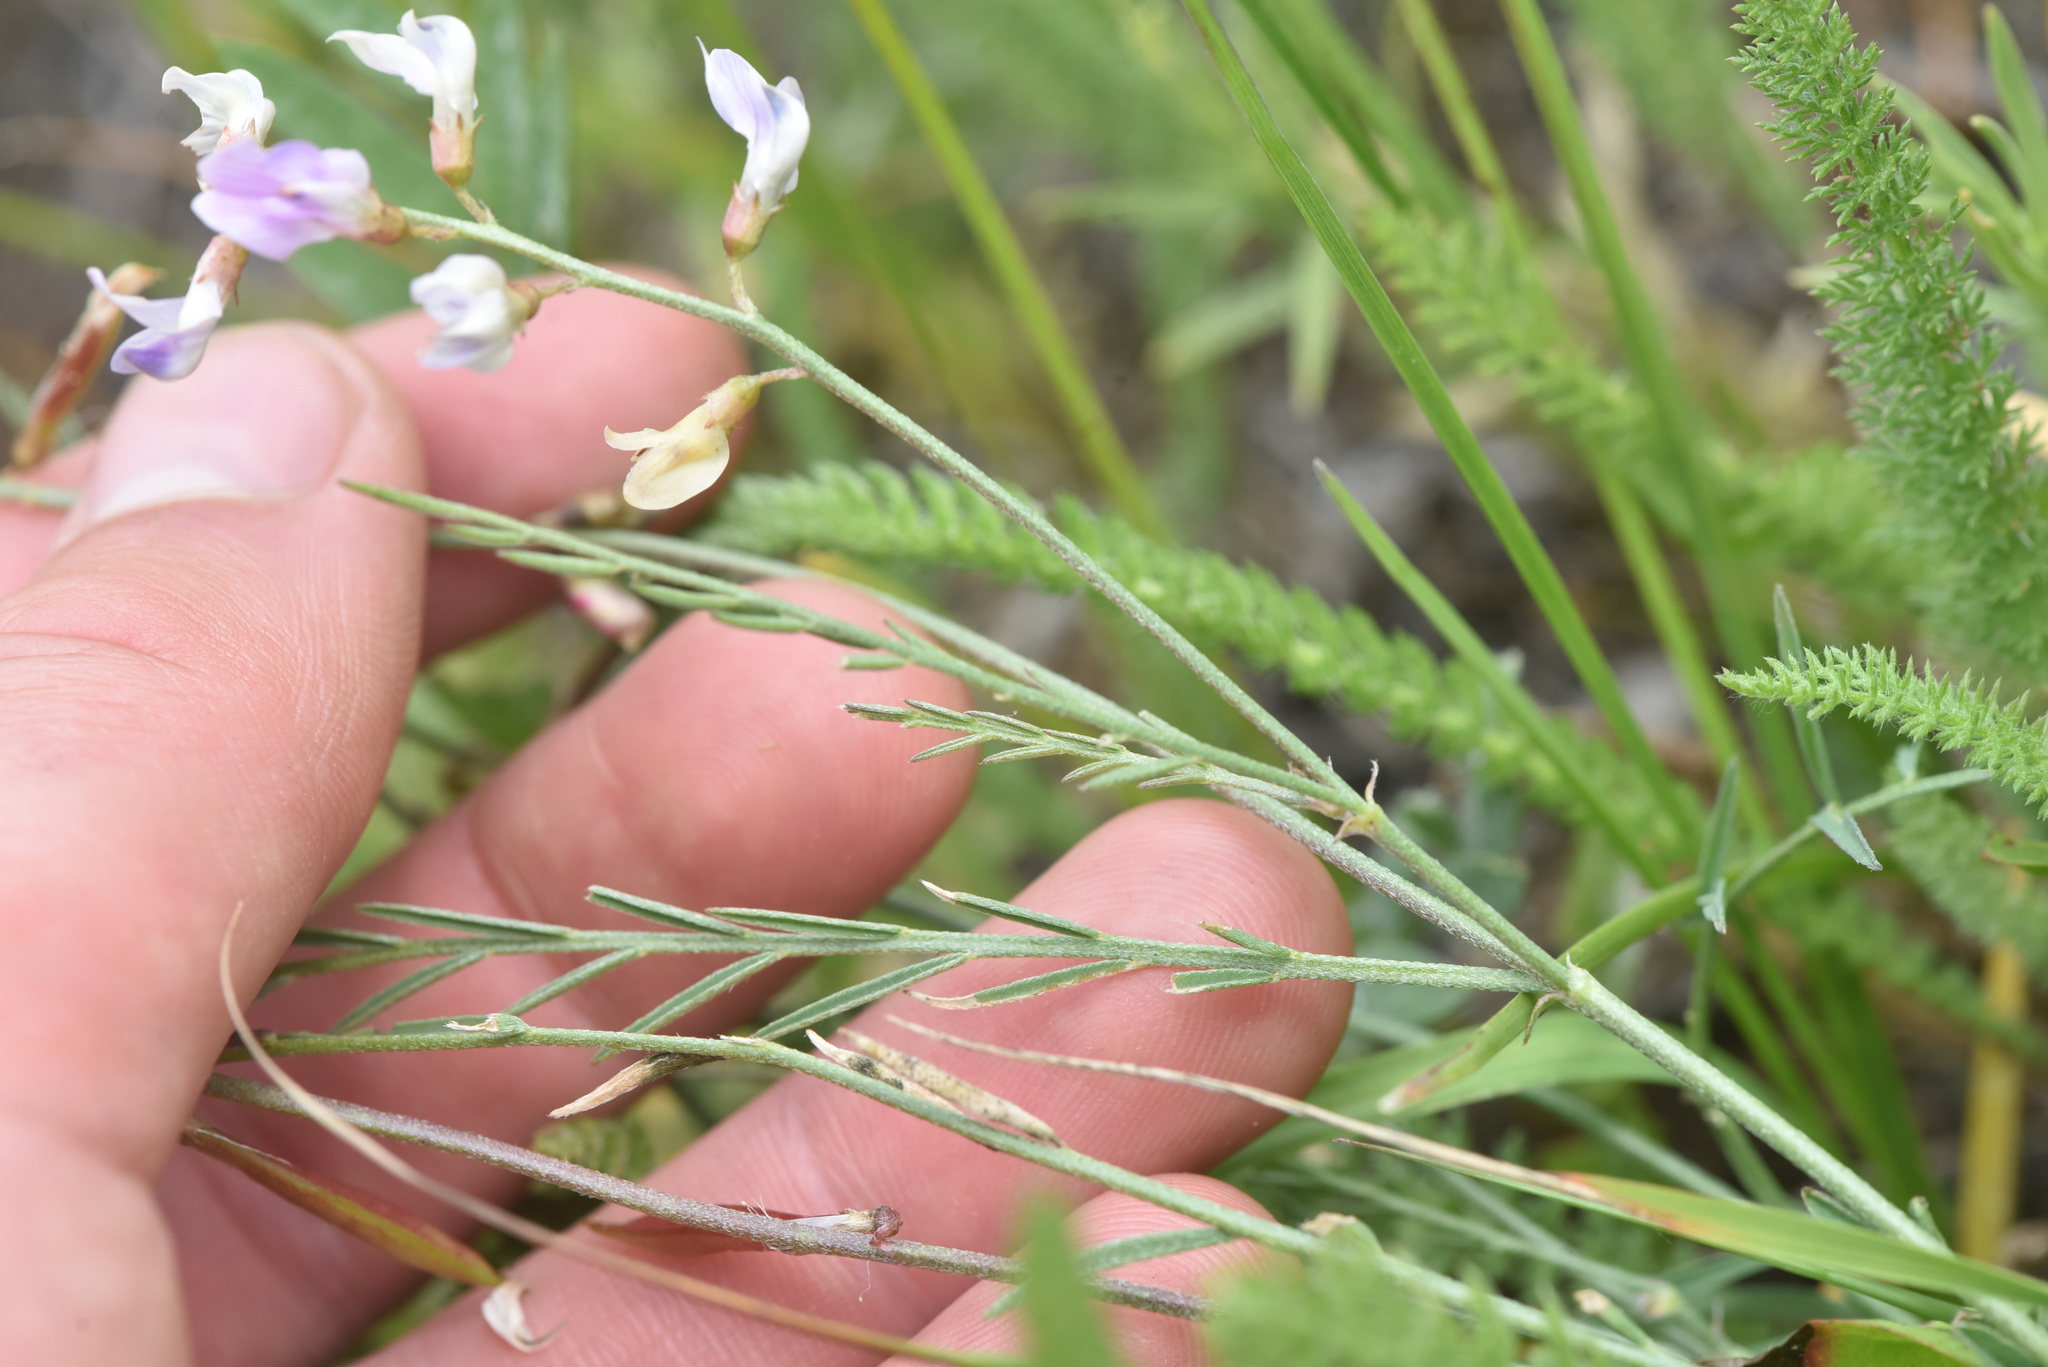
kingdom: Plantae
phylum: Tracheophyta
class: Magnoliopsida
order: Fabales
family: Fabaceae
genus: Astragalus
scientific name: Astragalus miser
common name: Timber milkvetch
